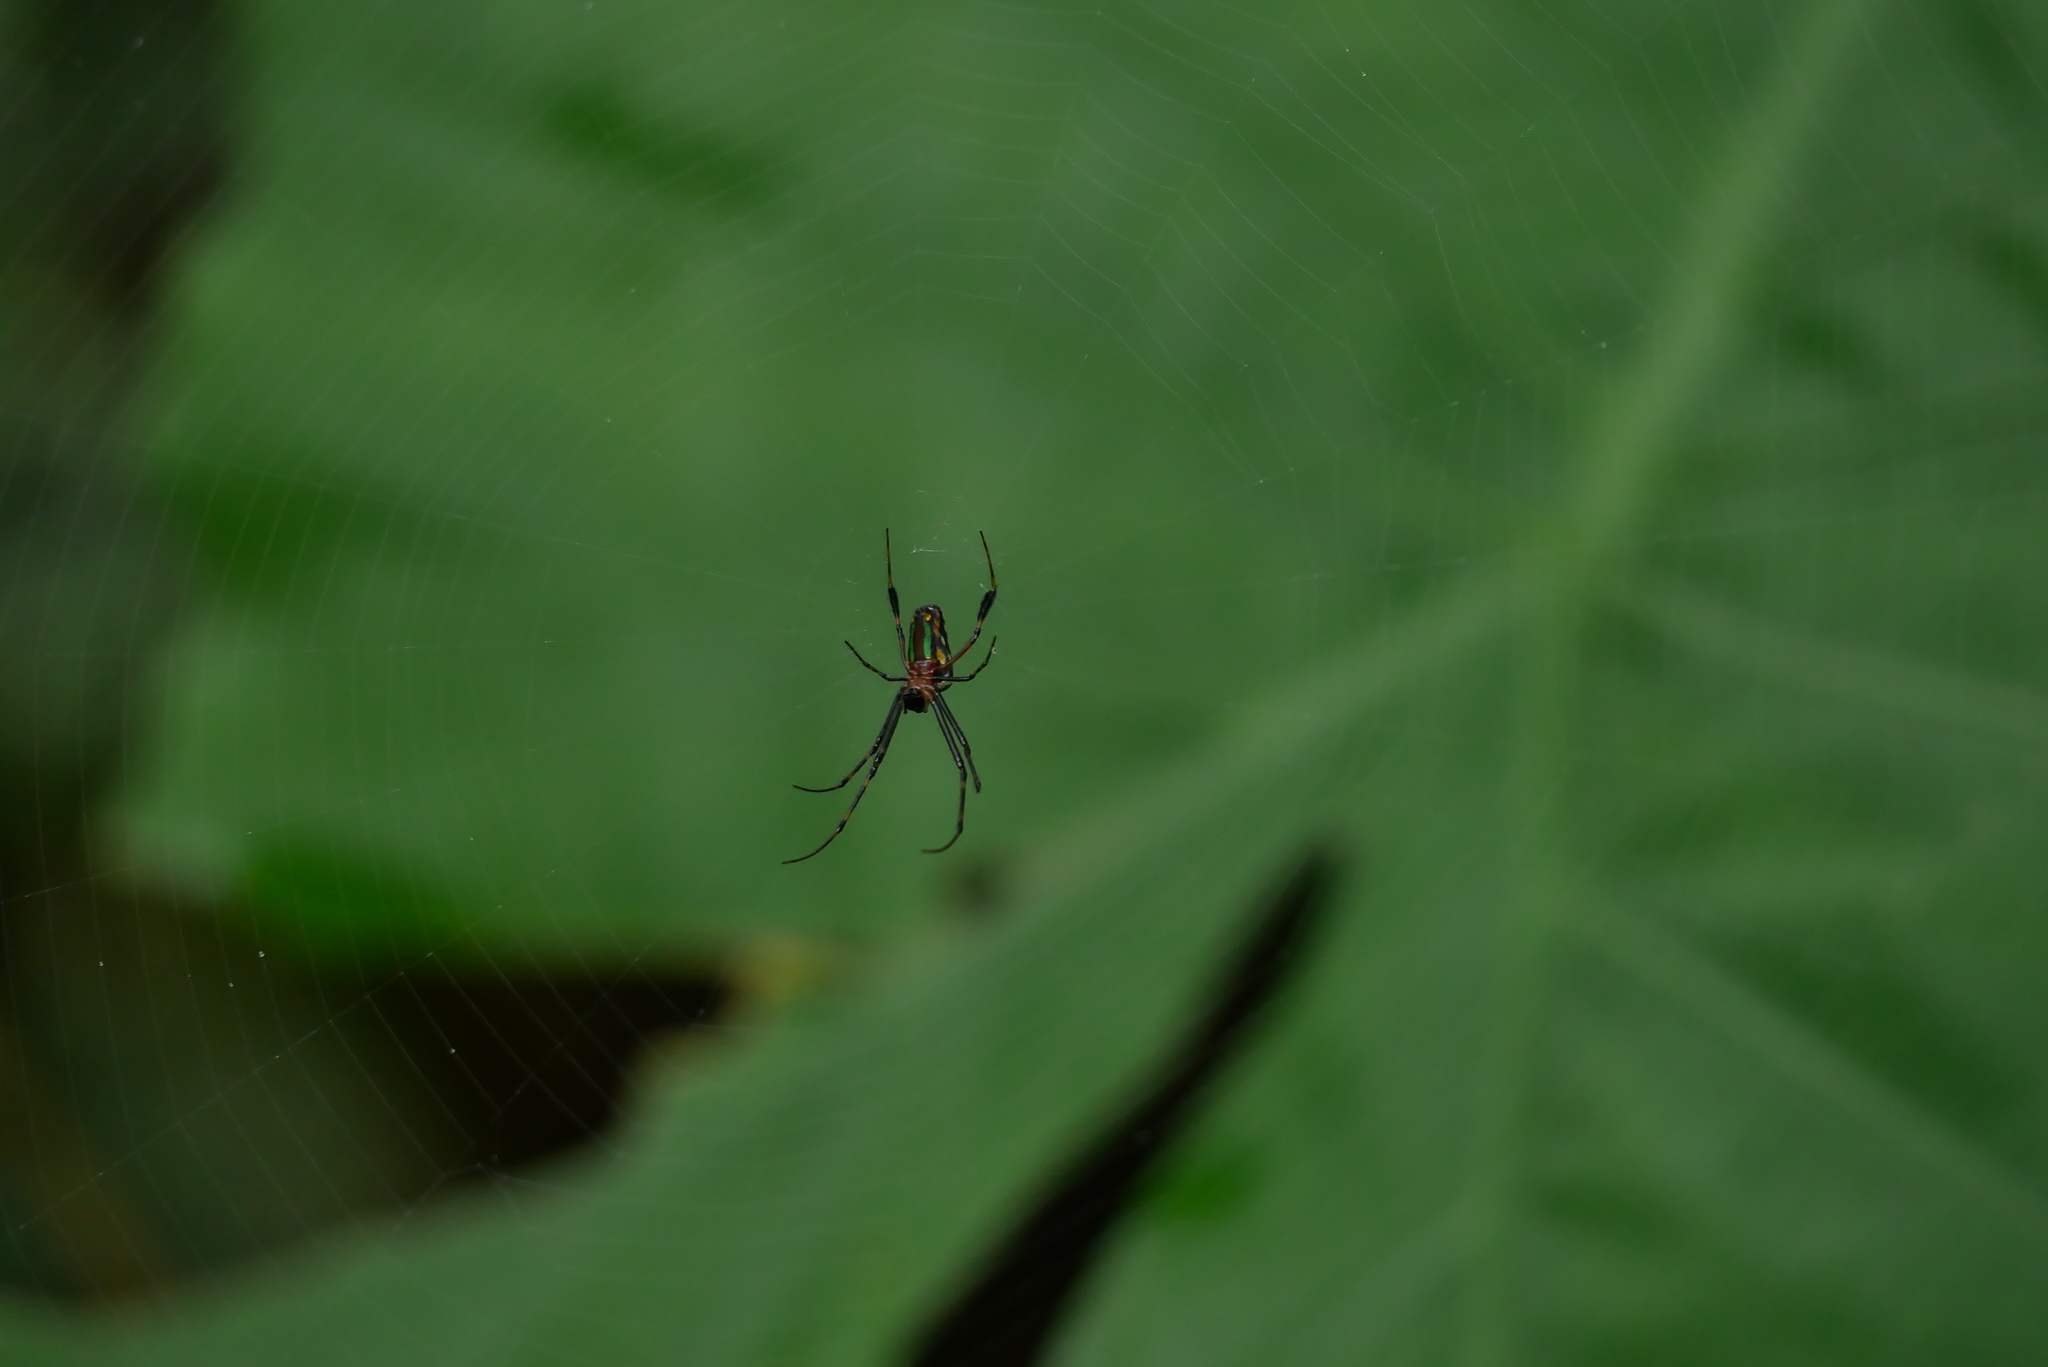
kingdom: Animalia
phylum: Arthropoda
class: Arachnida
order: Araneae
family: Tetragnathidae
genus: Leucauge
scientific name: Leucauge tessellata
